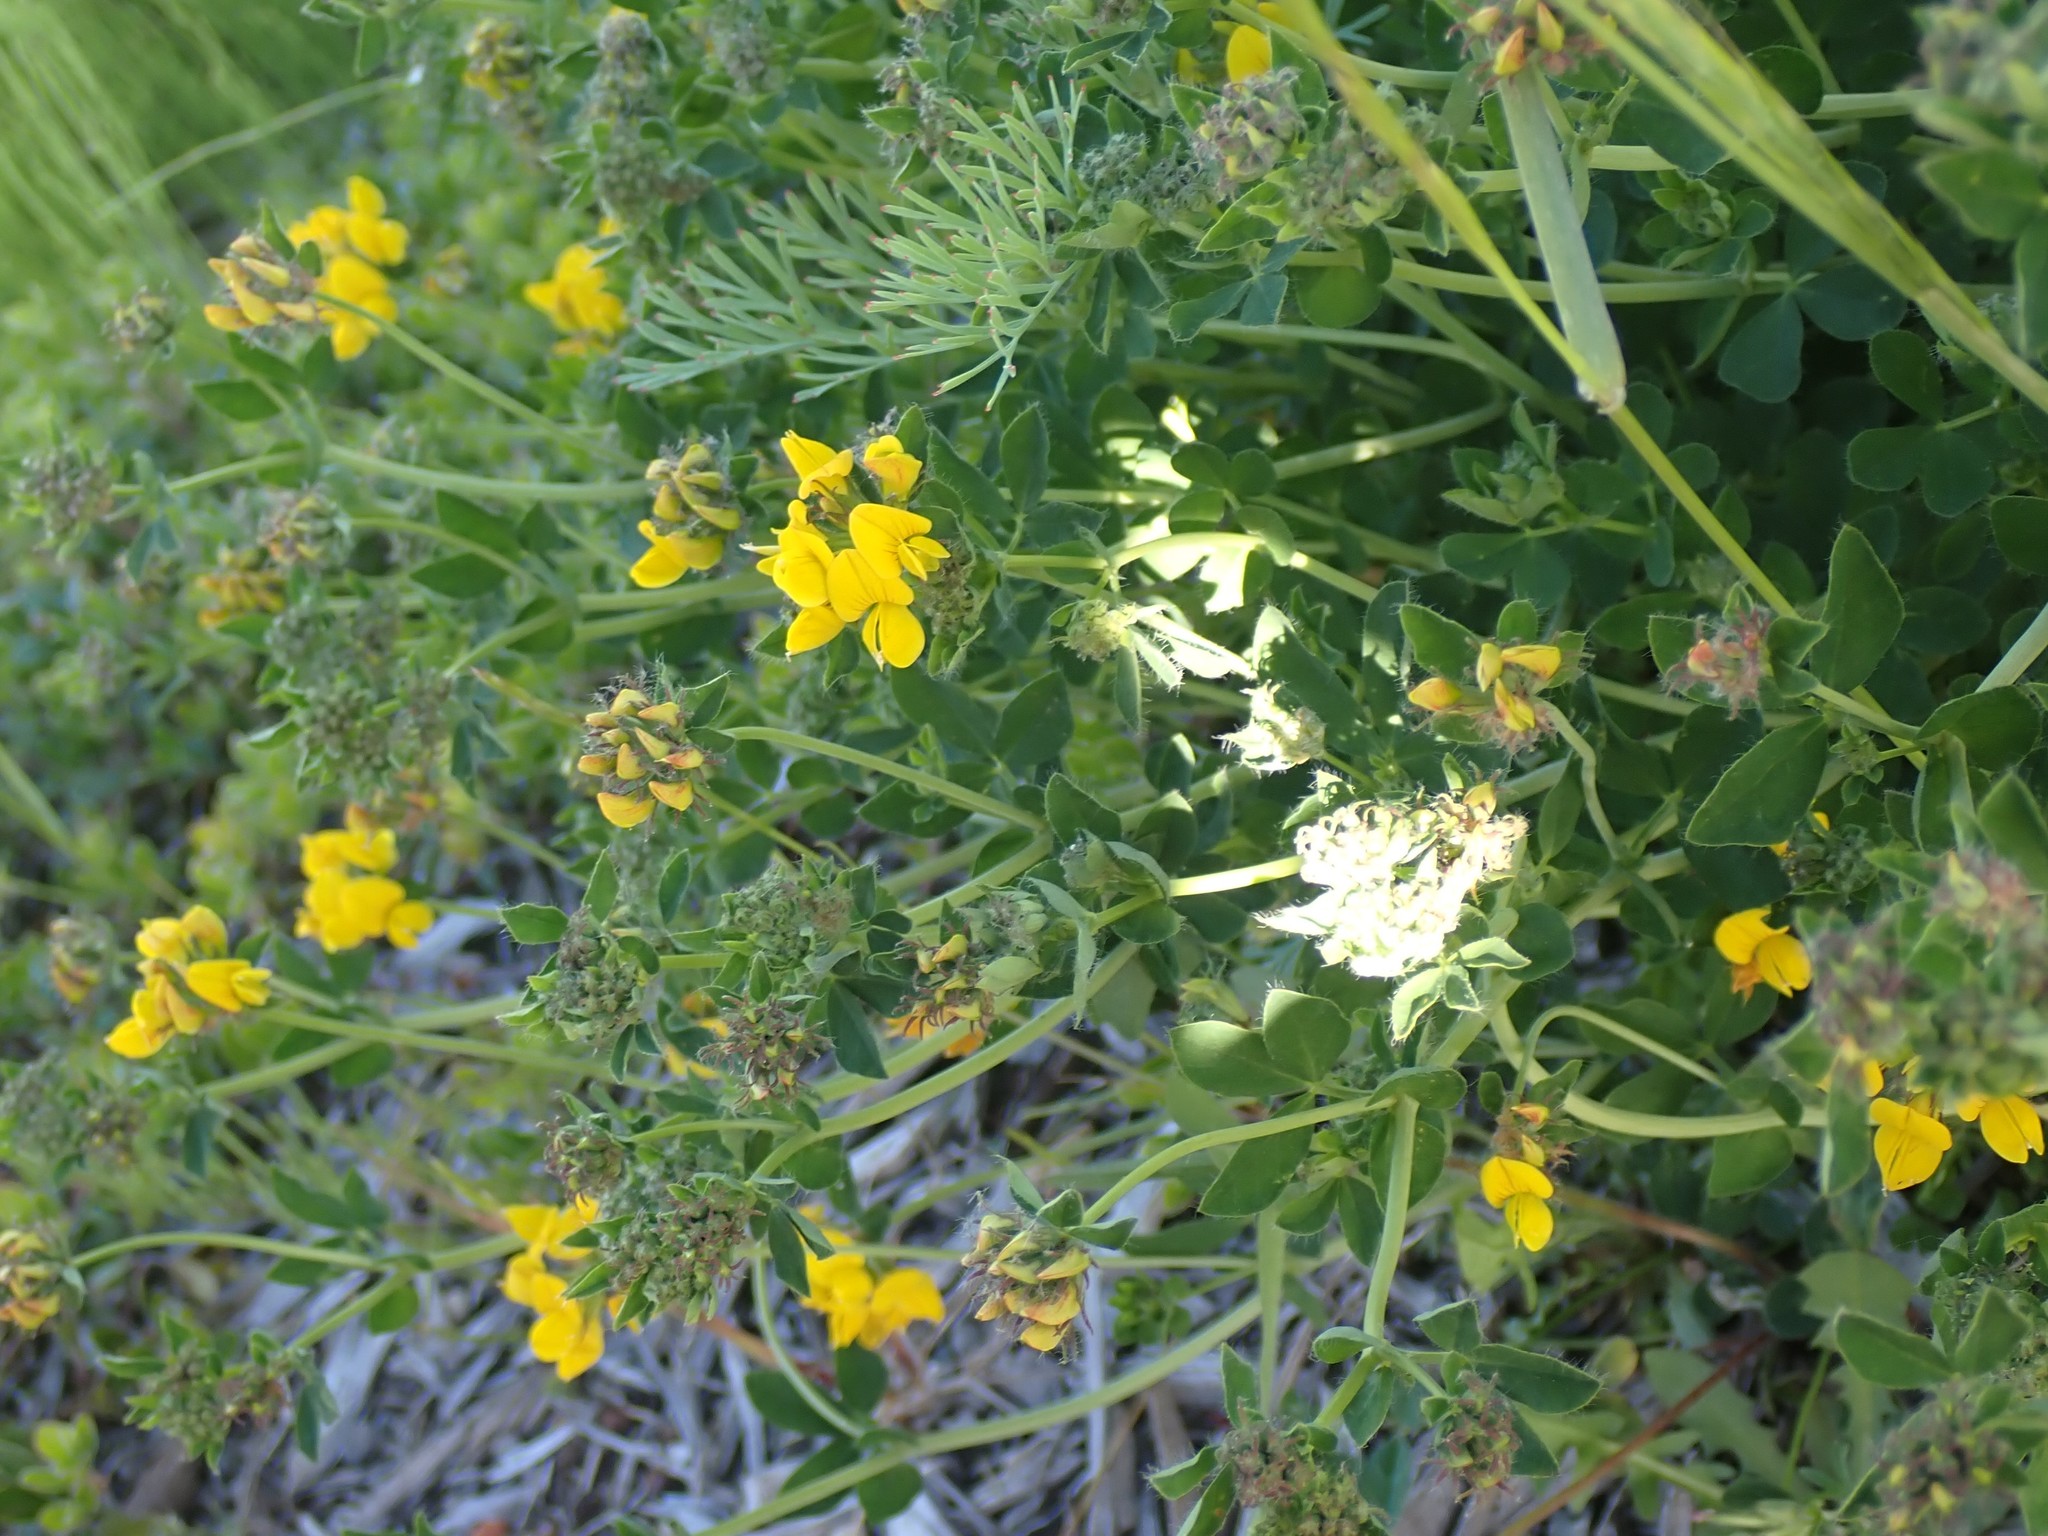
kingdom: Plantae
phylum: Tracheophyta
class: Magnoliopsida
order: Fabales
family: Fabaceae
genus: Lotus
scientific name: Lotus pedunculatus
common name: Greater birdsfoot-trefoil
